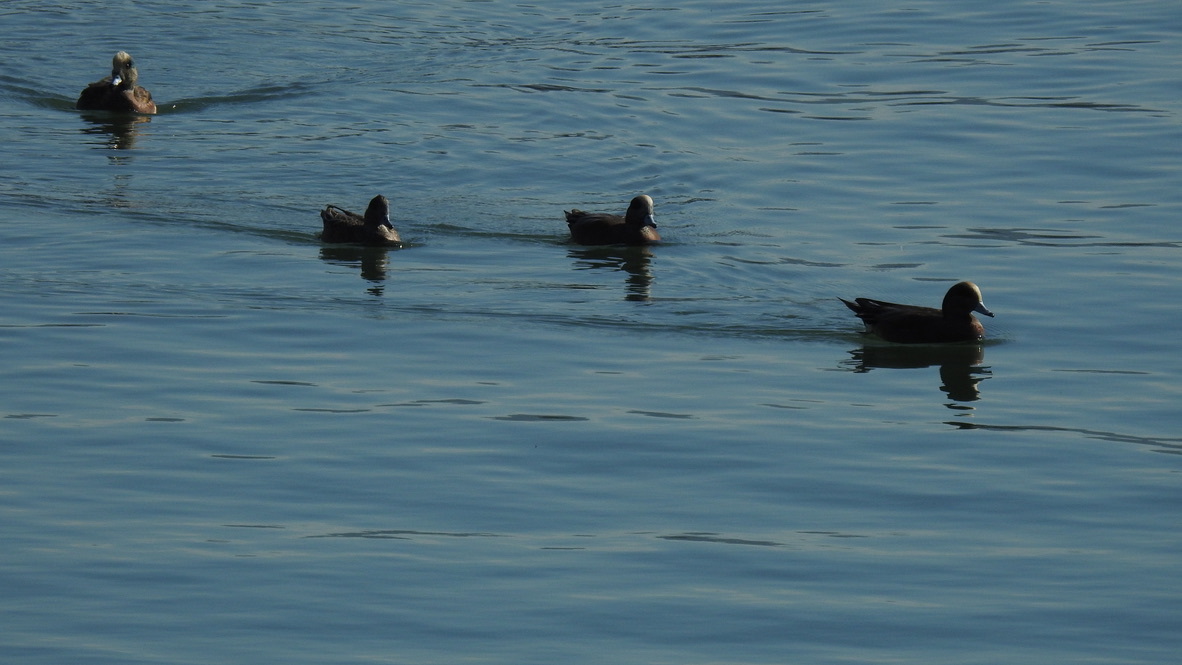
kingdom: Animalia
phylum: Chordata
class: Aves
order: Anseriformes
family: Anatidae
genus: Mareca
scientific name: Mareca americana
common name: American wigeon
